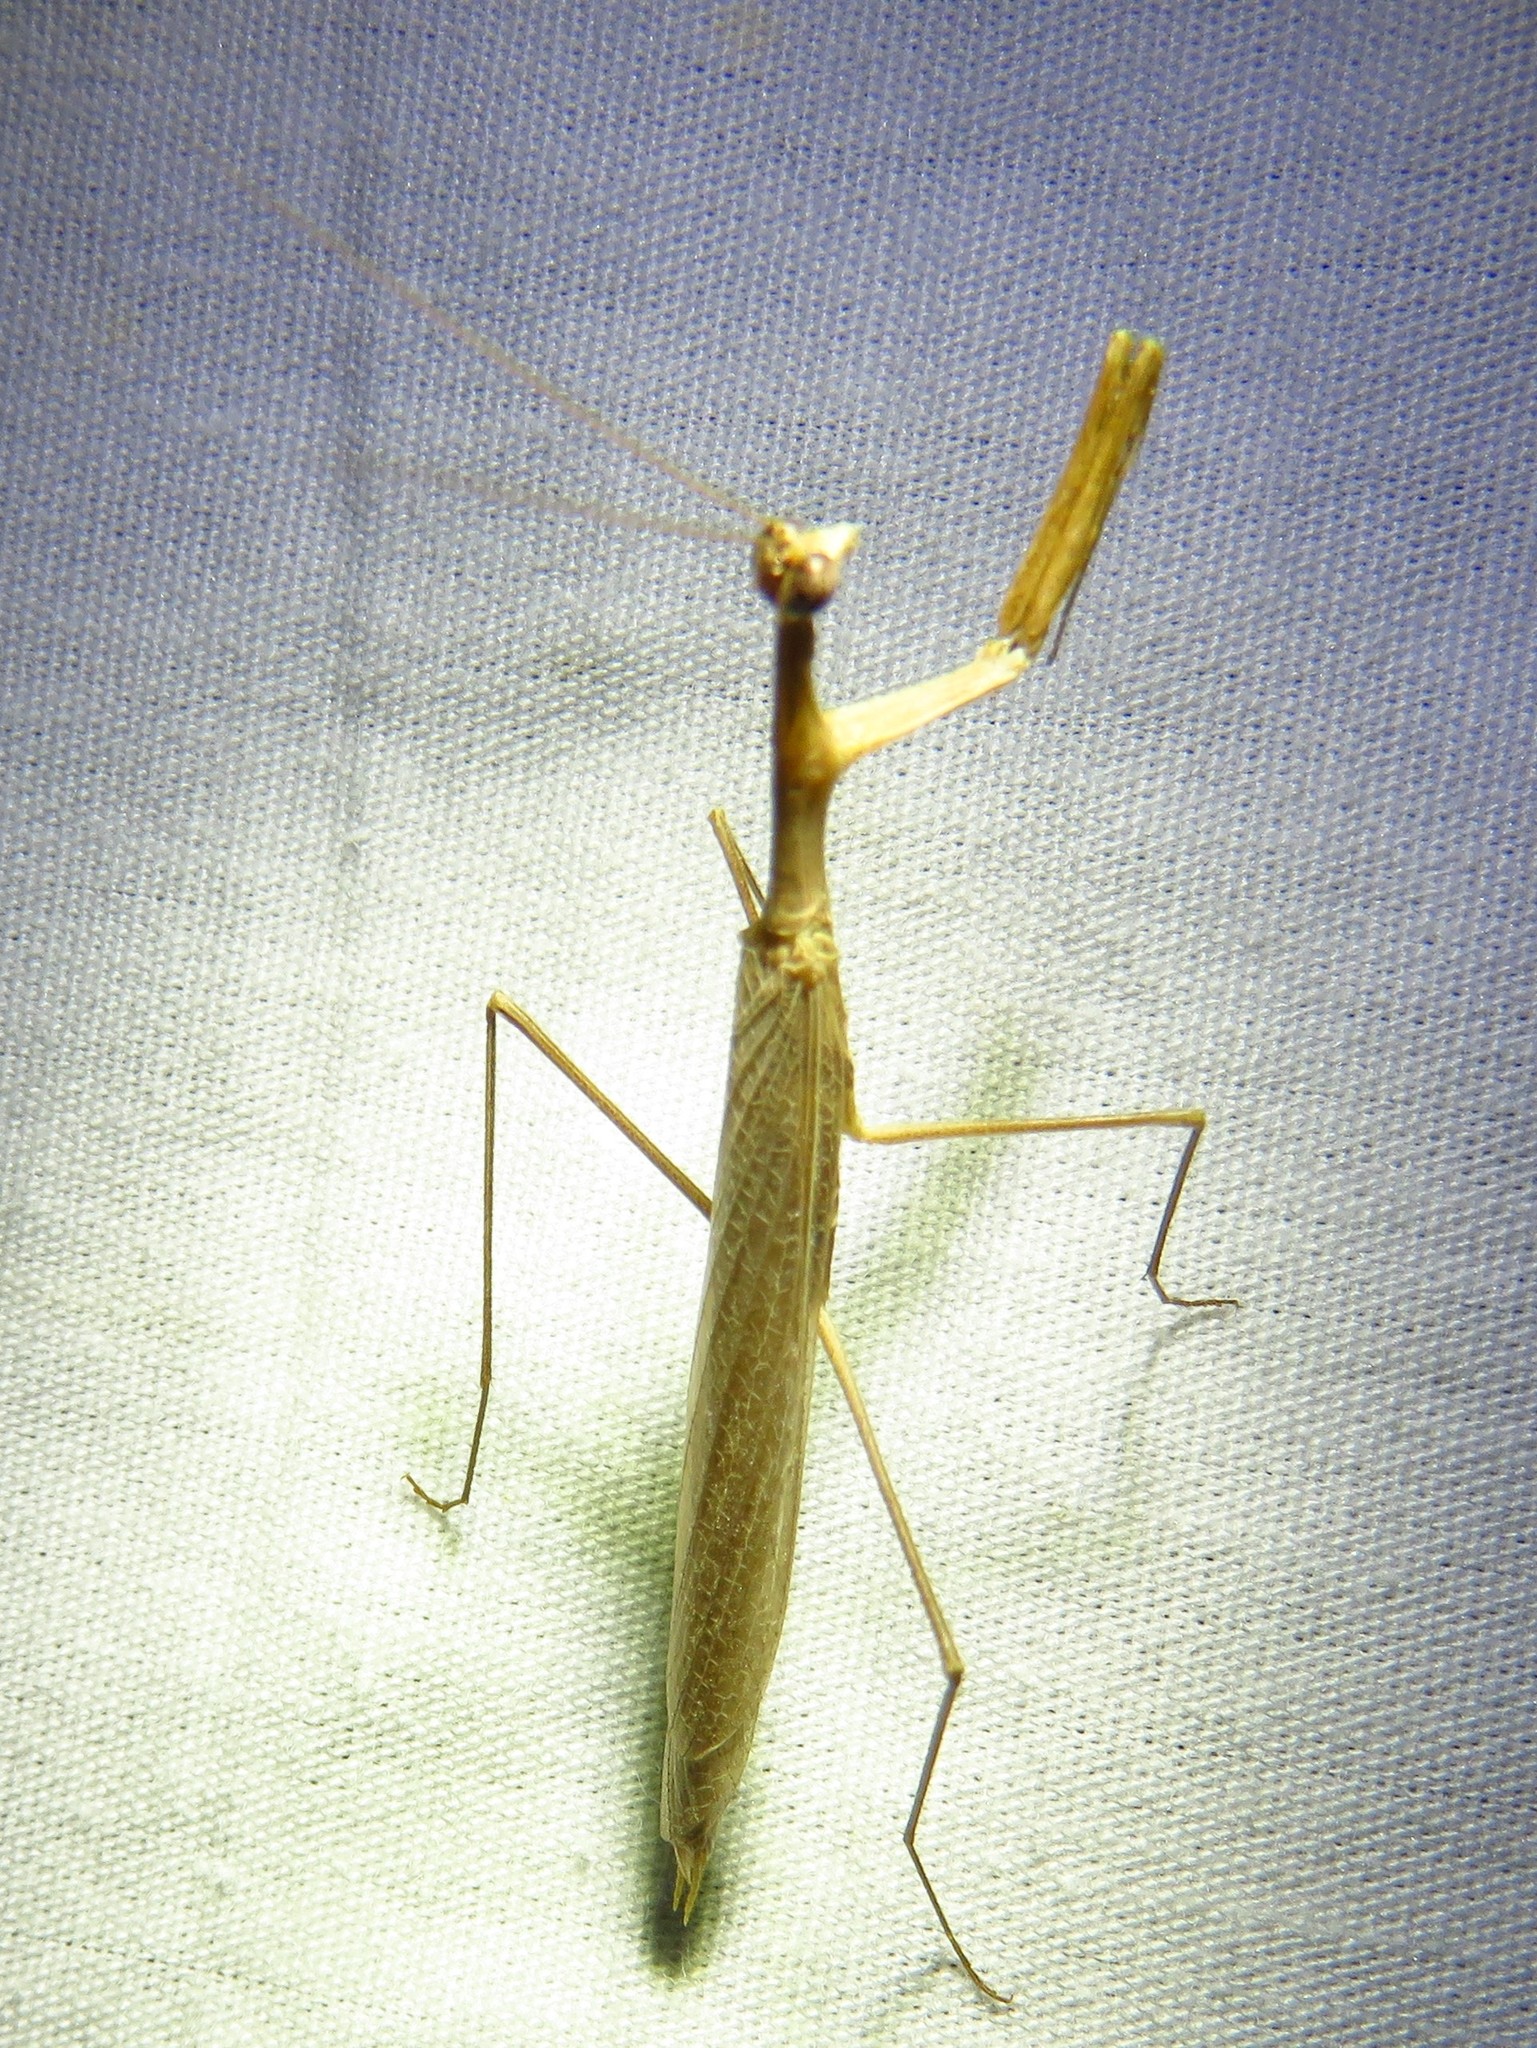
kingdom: Animalia
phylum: Arthropoda
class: Insecta
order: Mantodea
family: Thespidae
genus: Oligonicella
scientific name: Oligonicella scudderi
